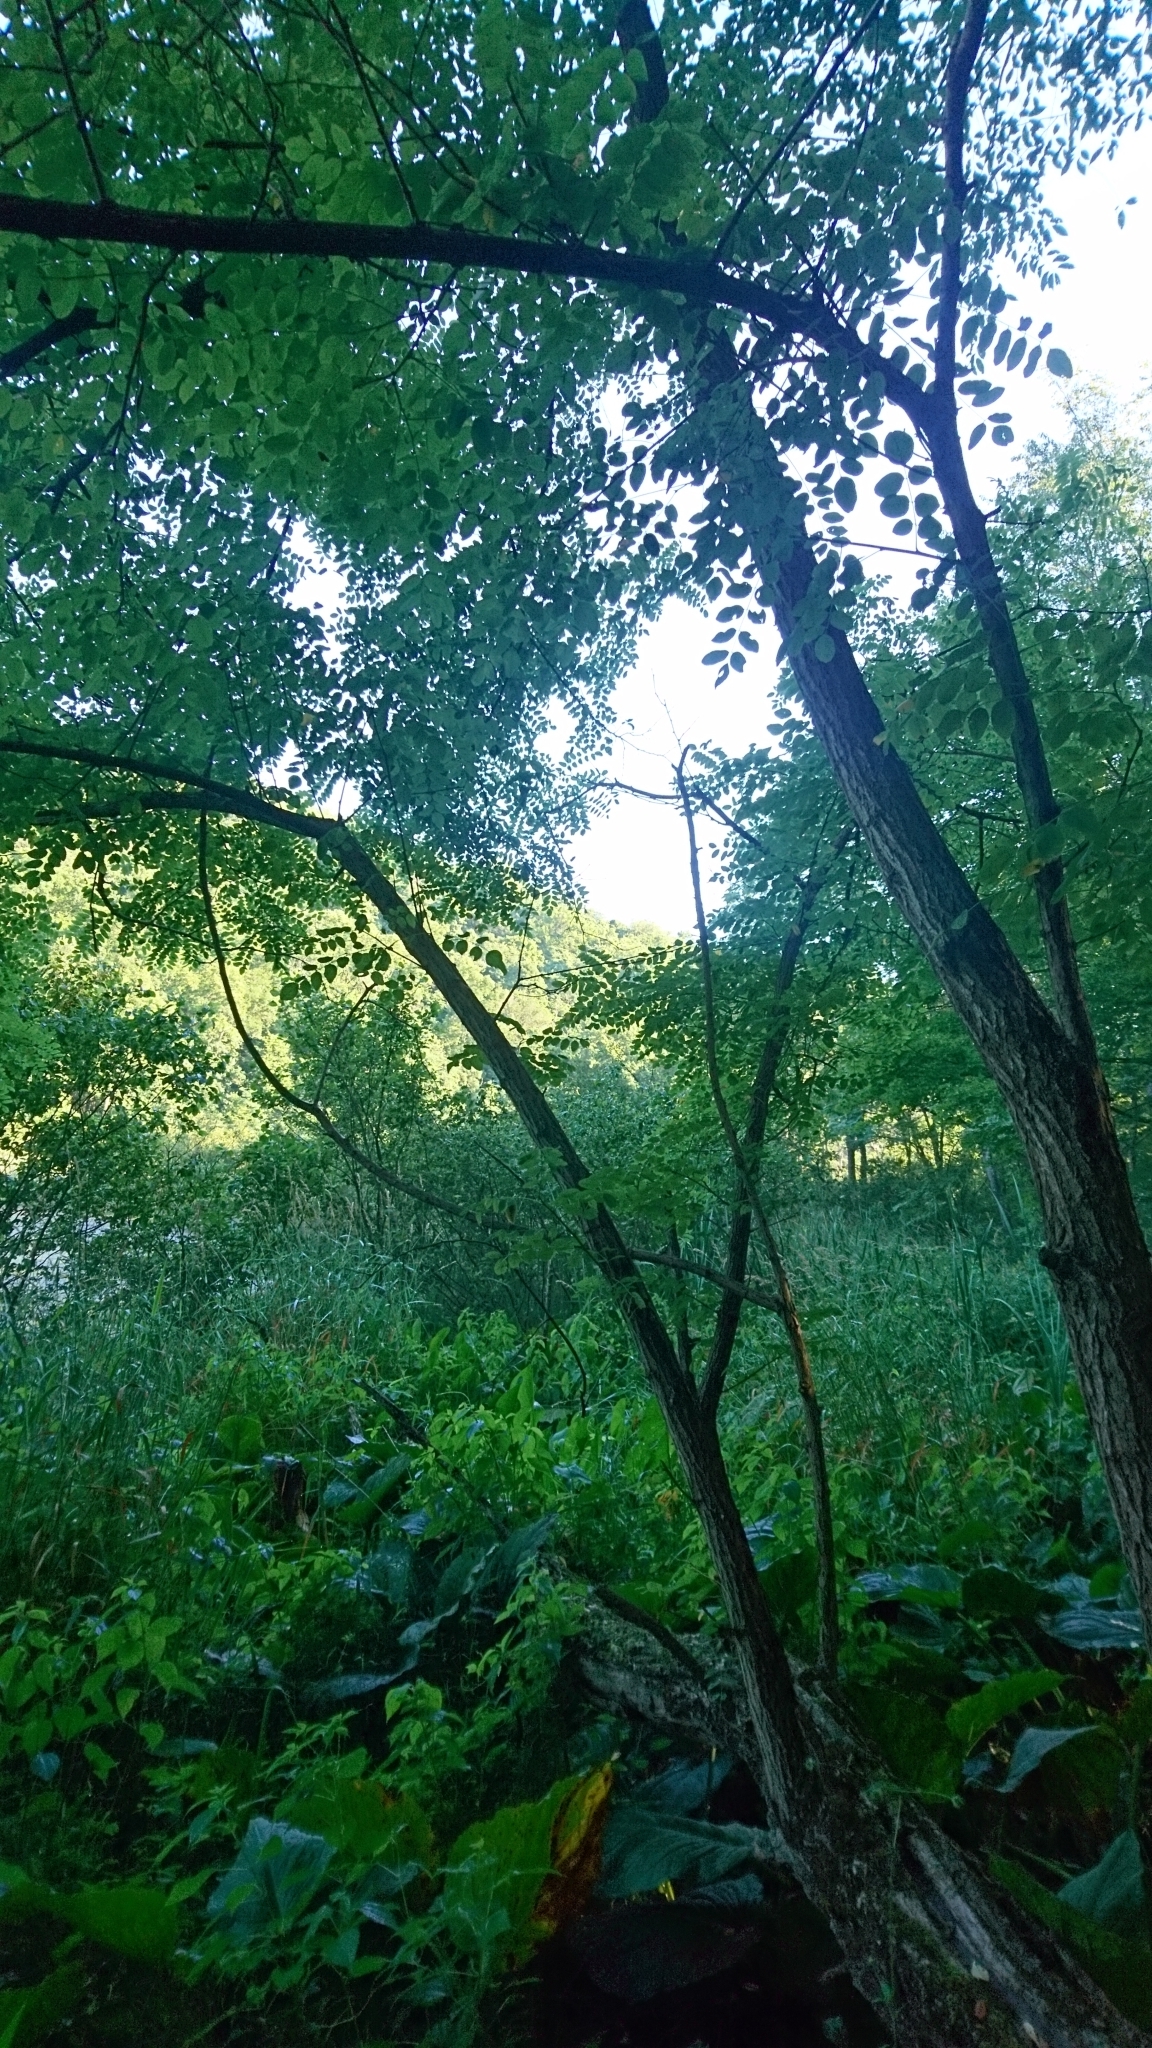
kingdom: Plantae
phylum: Tracheophyta
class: Magnoliopsida
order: Fabales
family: Fabaceae
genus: Robinia
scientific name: Robinia pseudoacacia
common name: Black locust
